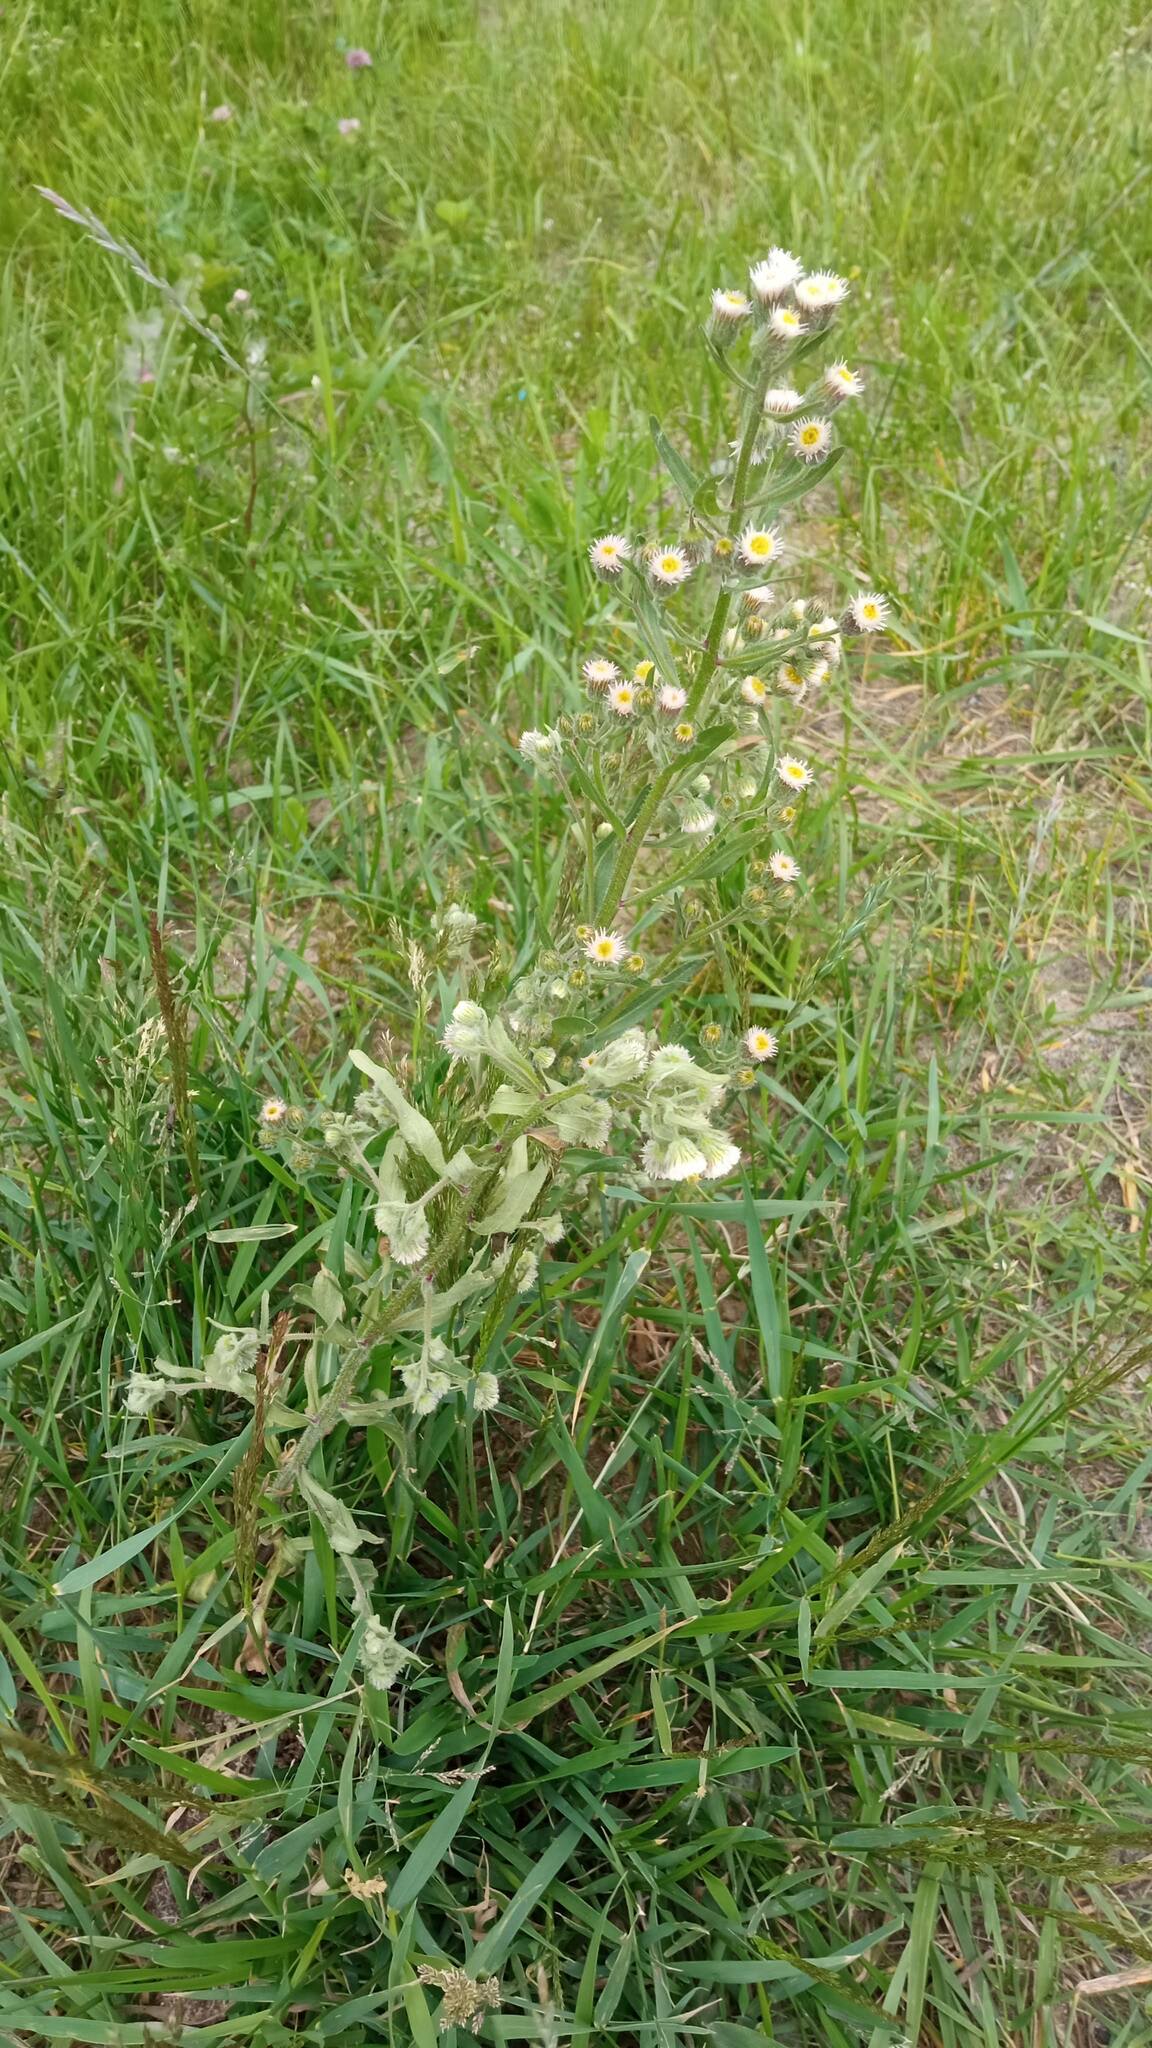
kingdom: Plantae
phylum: Tracheophyta
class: Magnoliopsida
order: Asterales
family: Asteraceae
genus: Erigeron
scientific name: Erigeron canadensis
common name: Canadian fleabane
